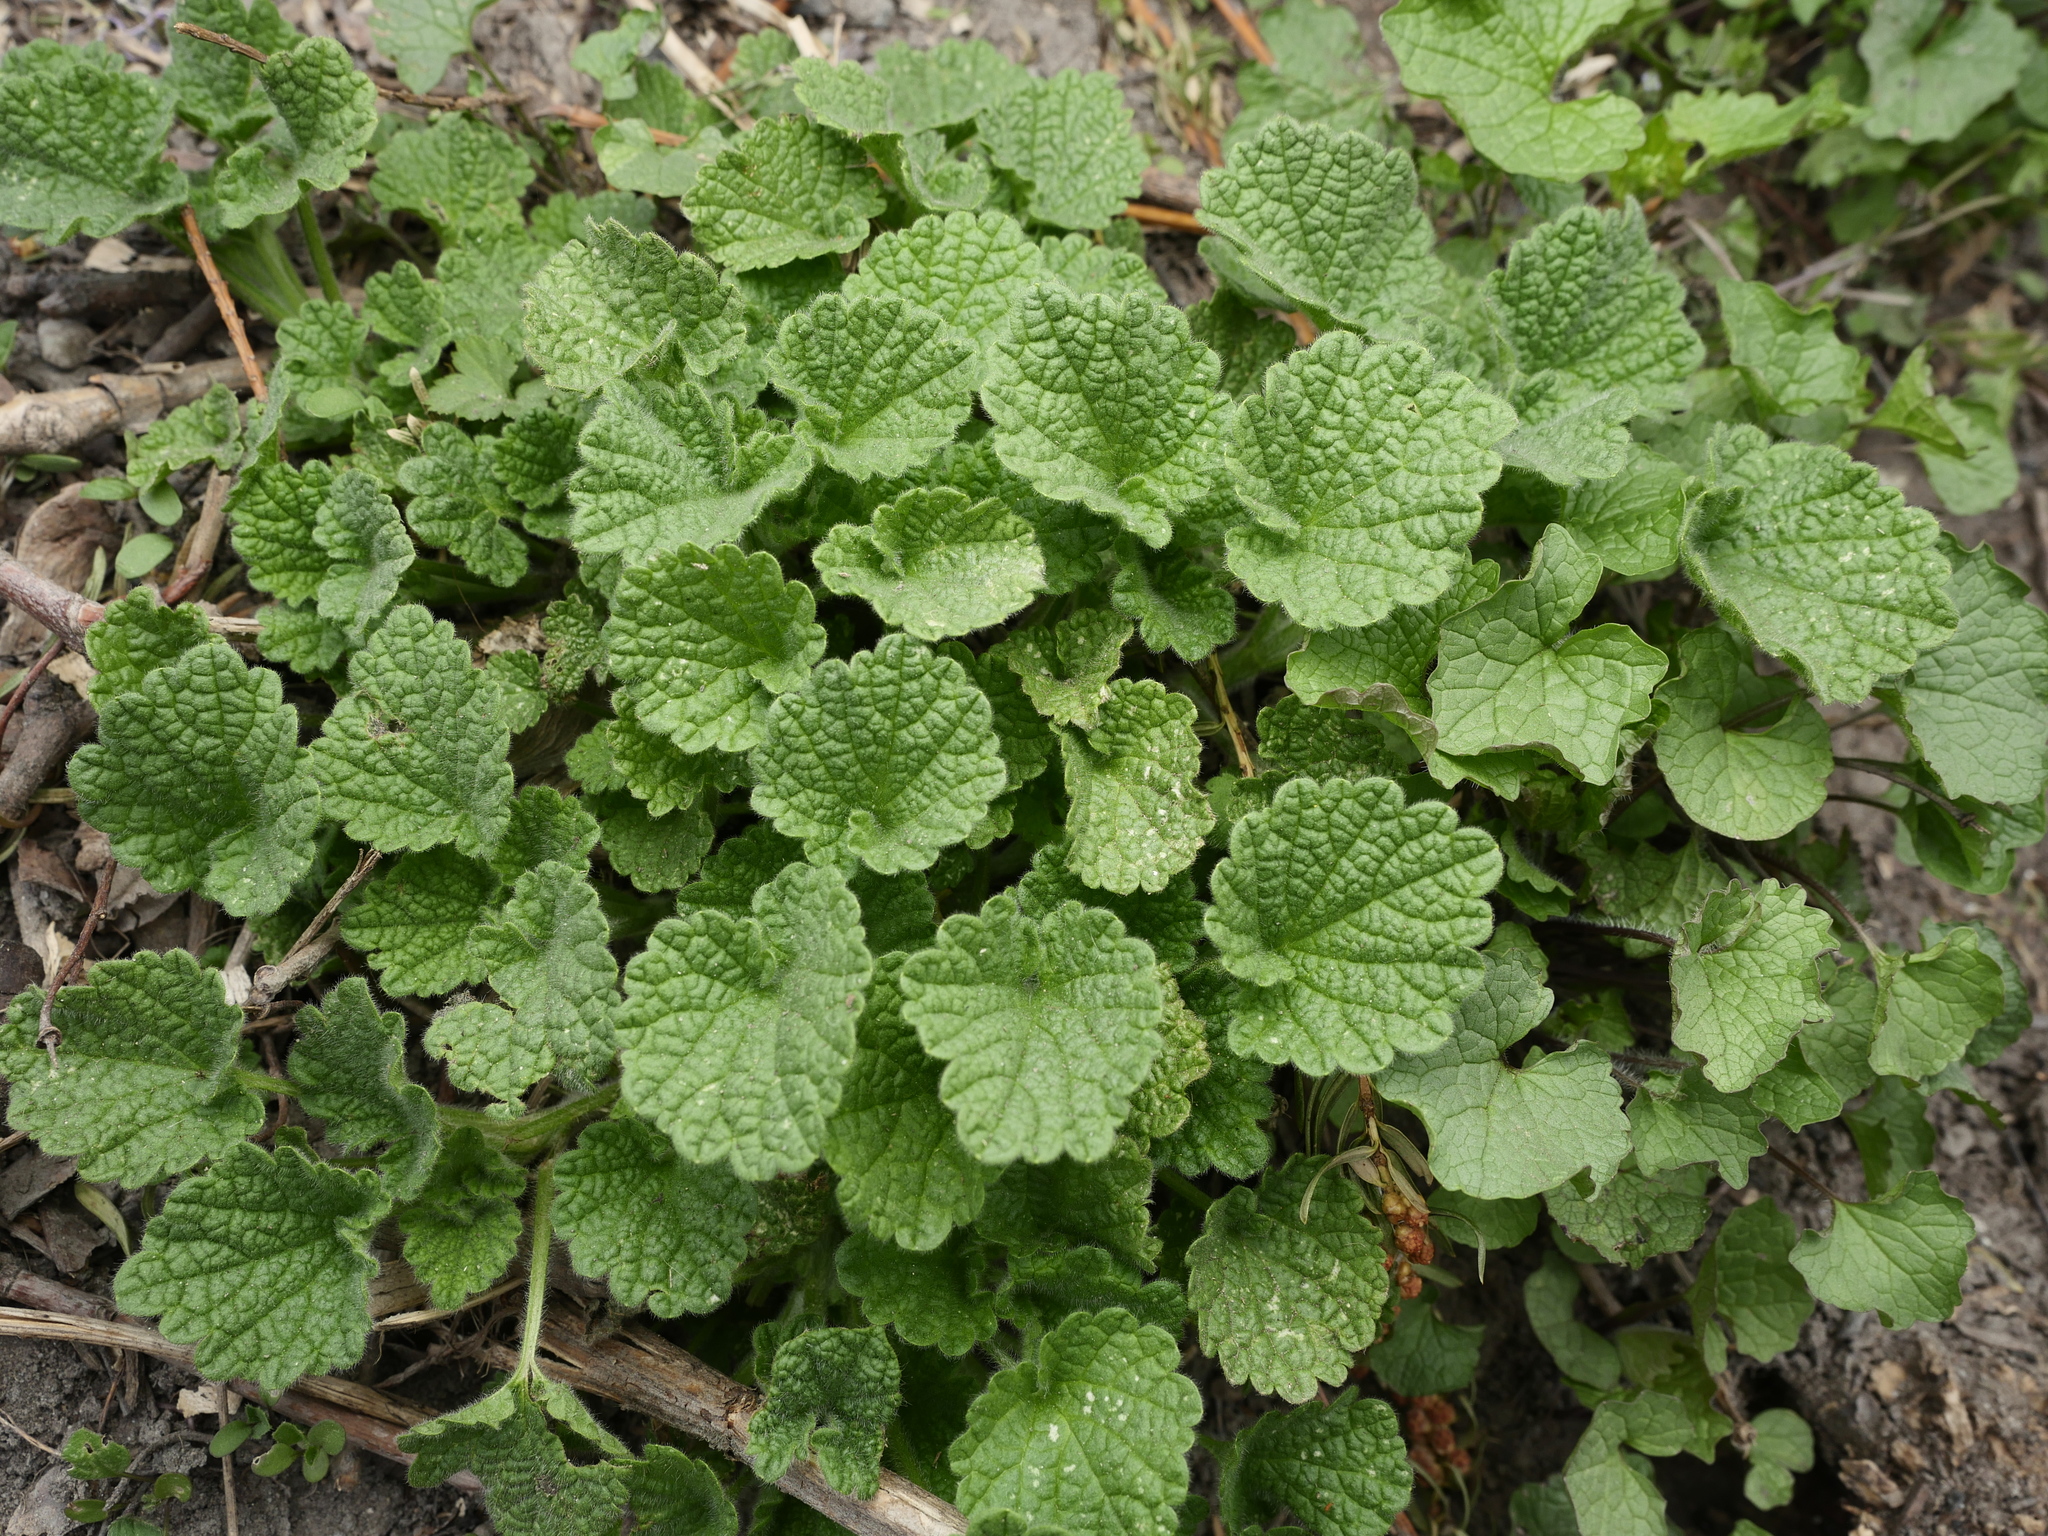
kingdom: Plantae
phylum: Tracheophyta
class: Magnoliopsida
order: Lamiales
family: Lamiaceae
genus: Ballota
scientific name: Ballota nigra
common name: Black horehound
